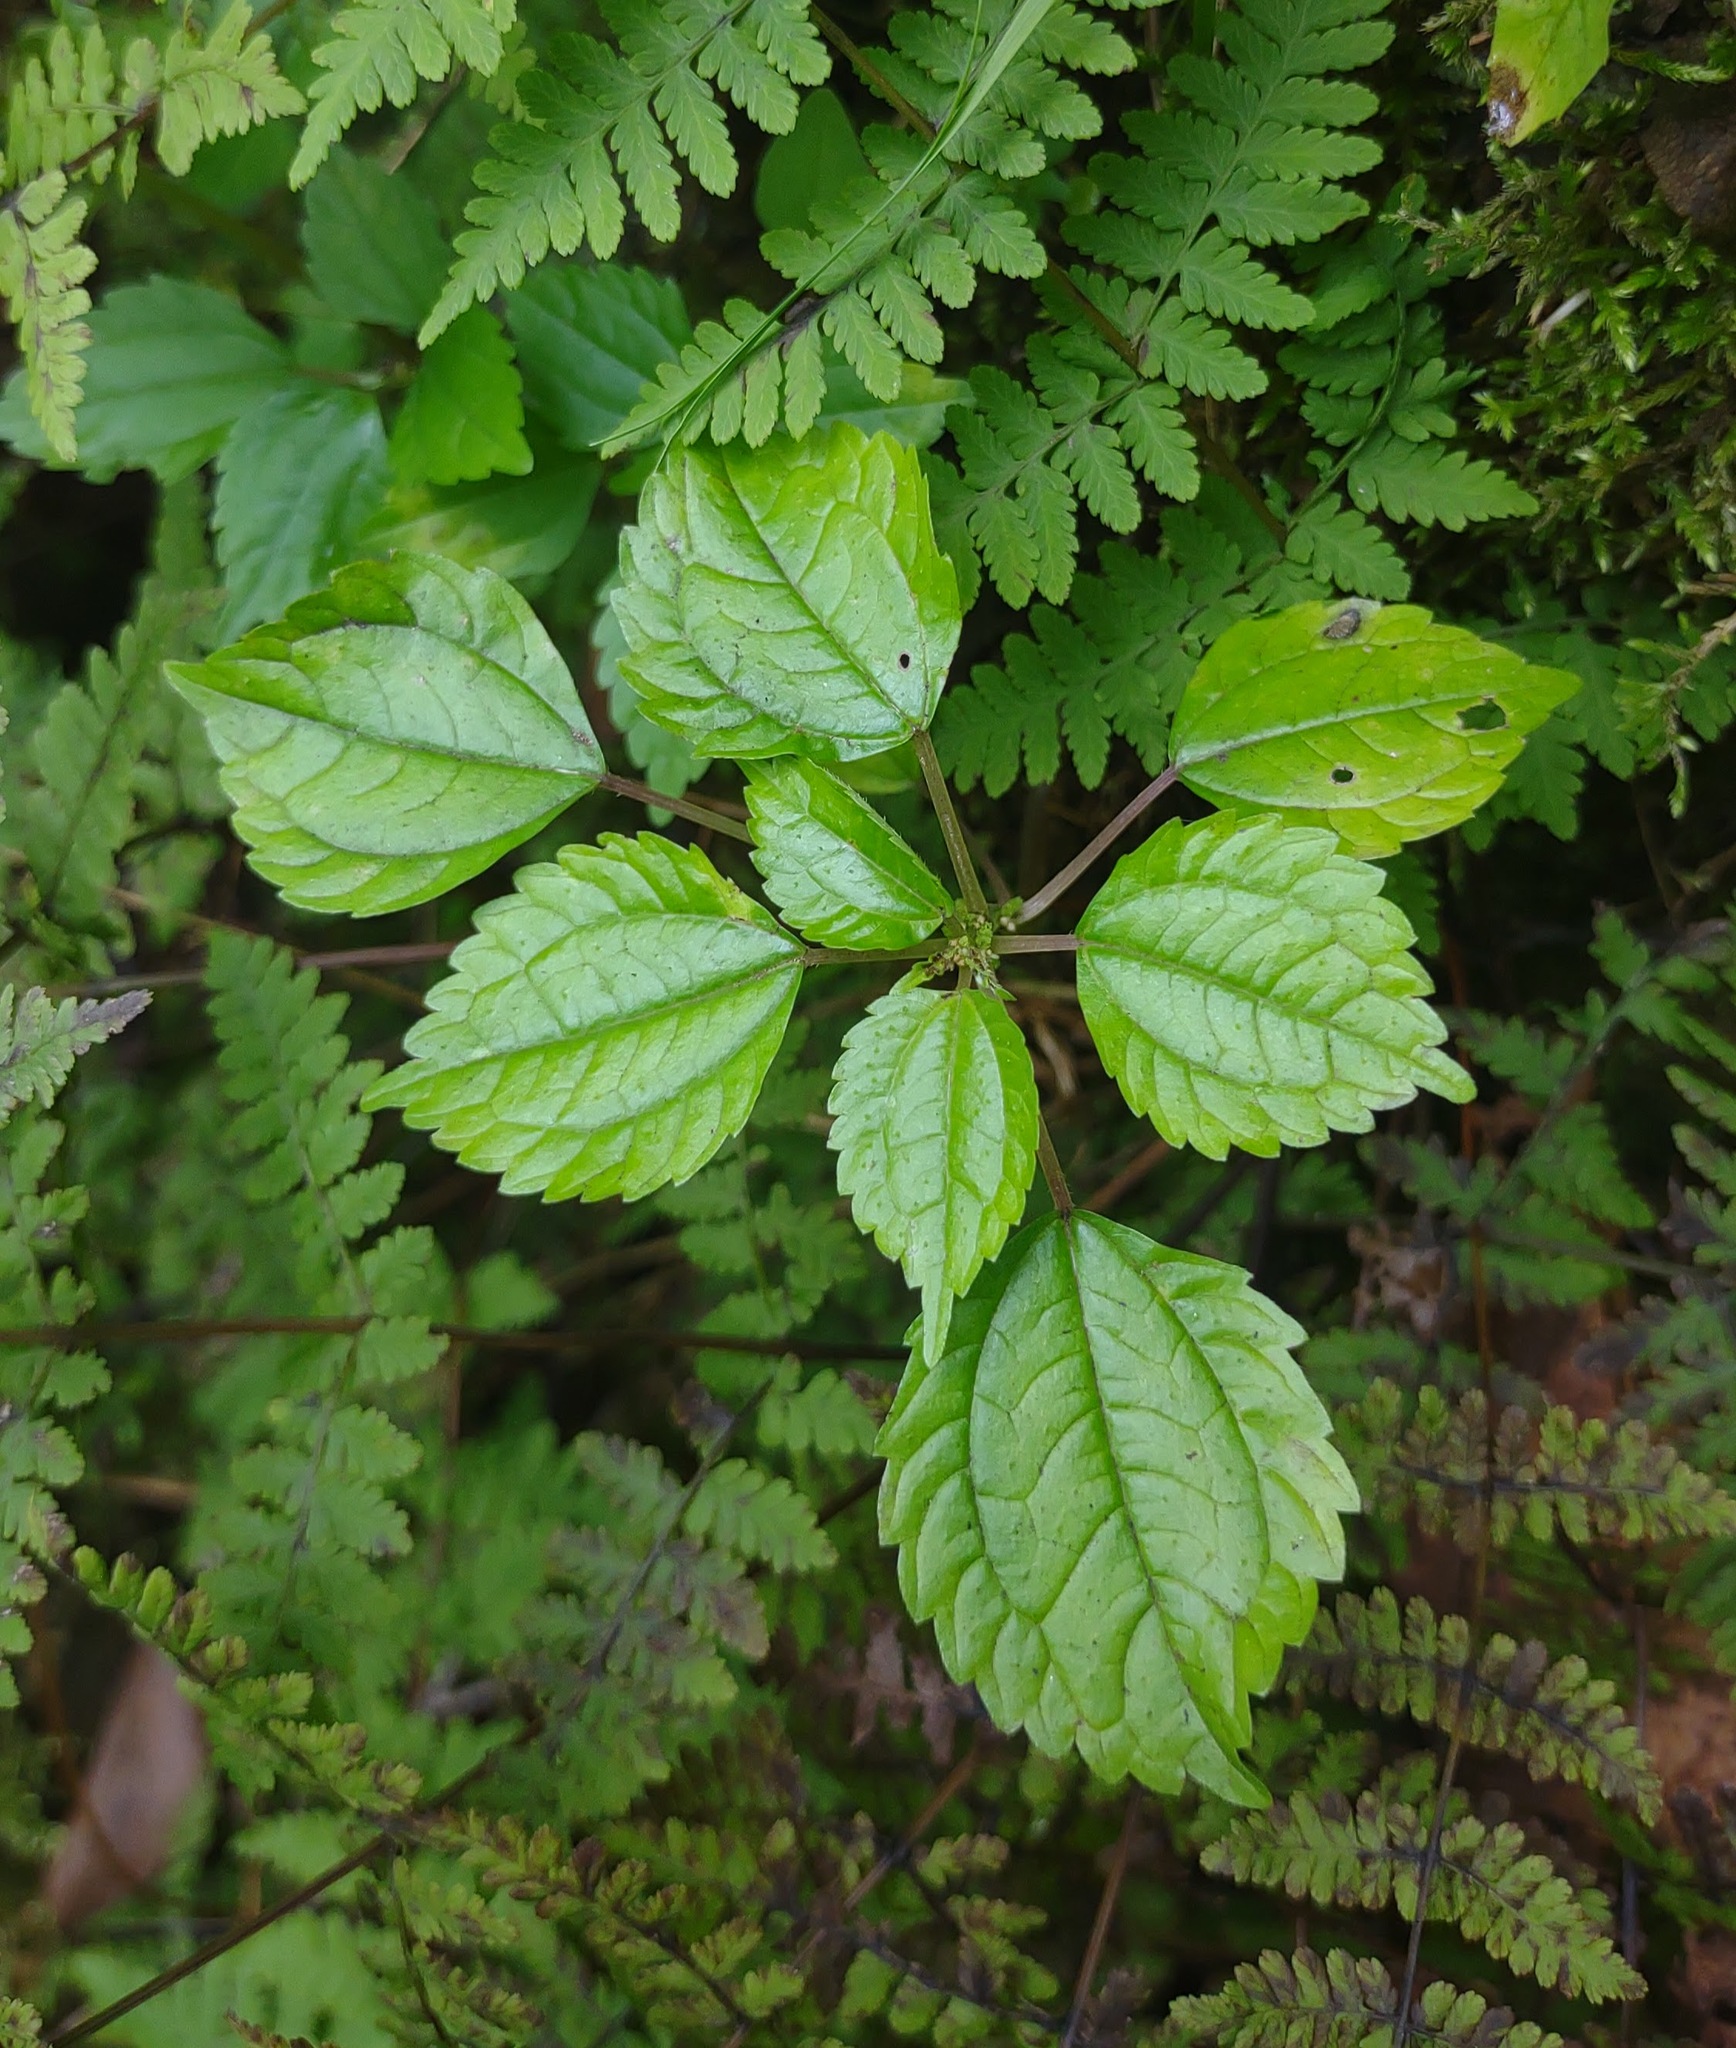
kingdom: Plantae
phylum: Tracheophyta
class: Magnoliopsida
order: Rosales
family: Urticaceae
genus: Pilea
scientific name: Pilea pumila
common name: Clearweed
